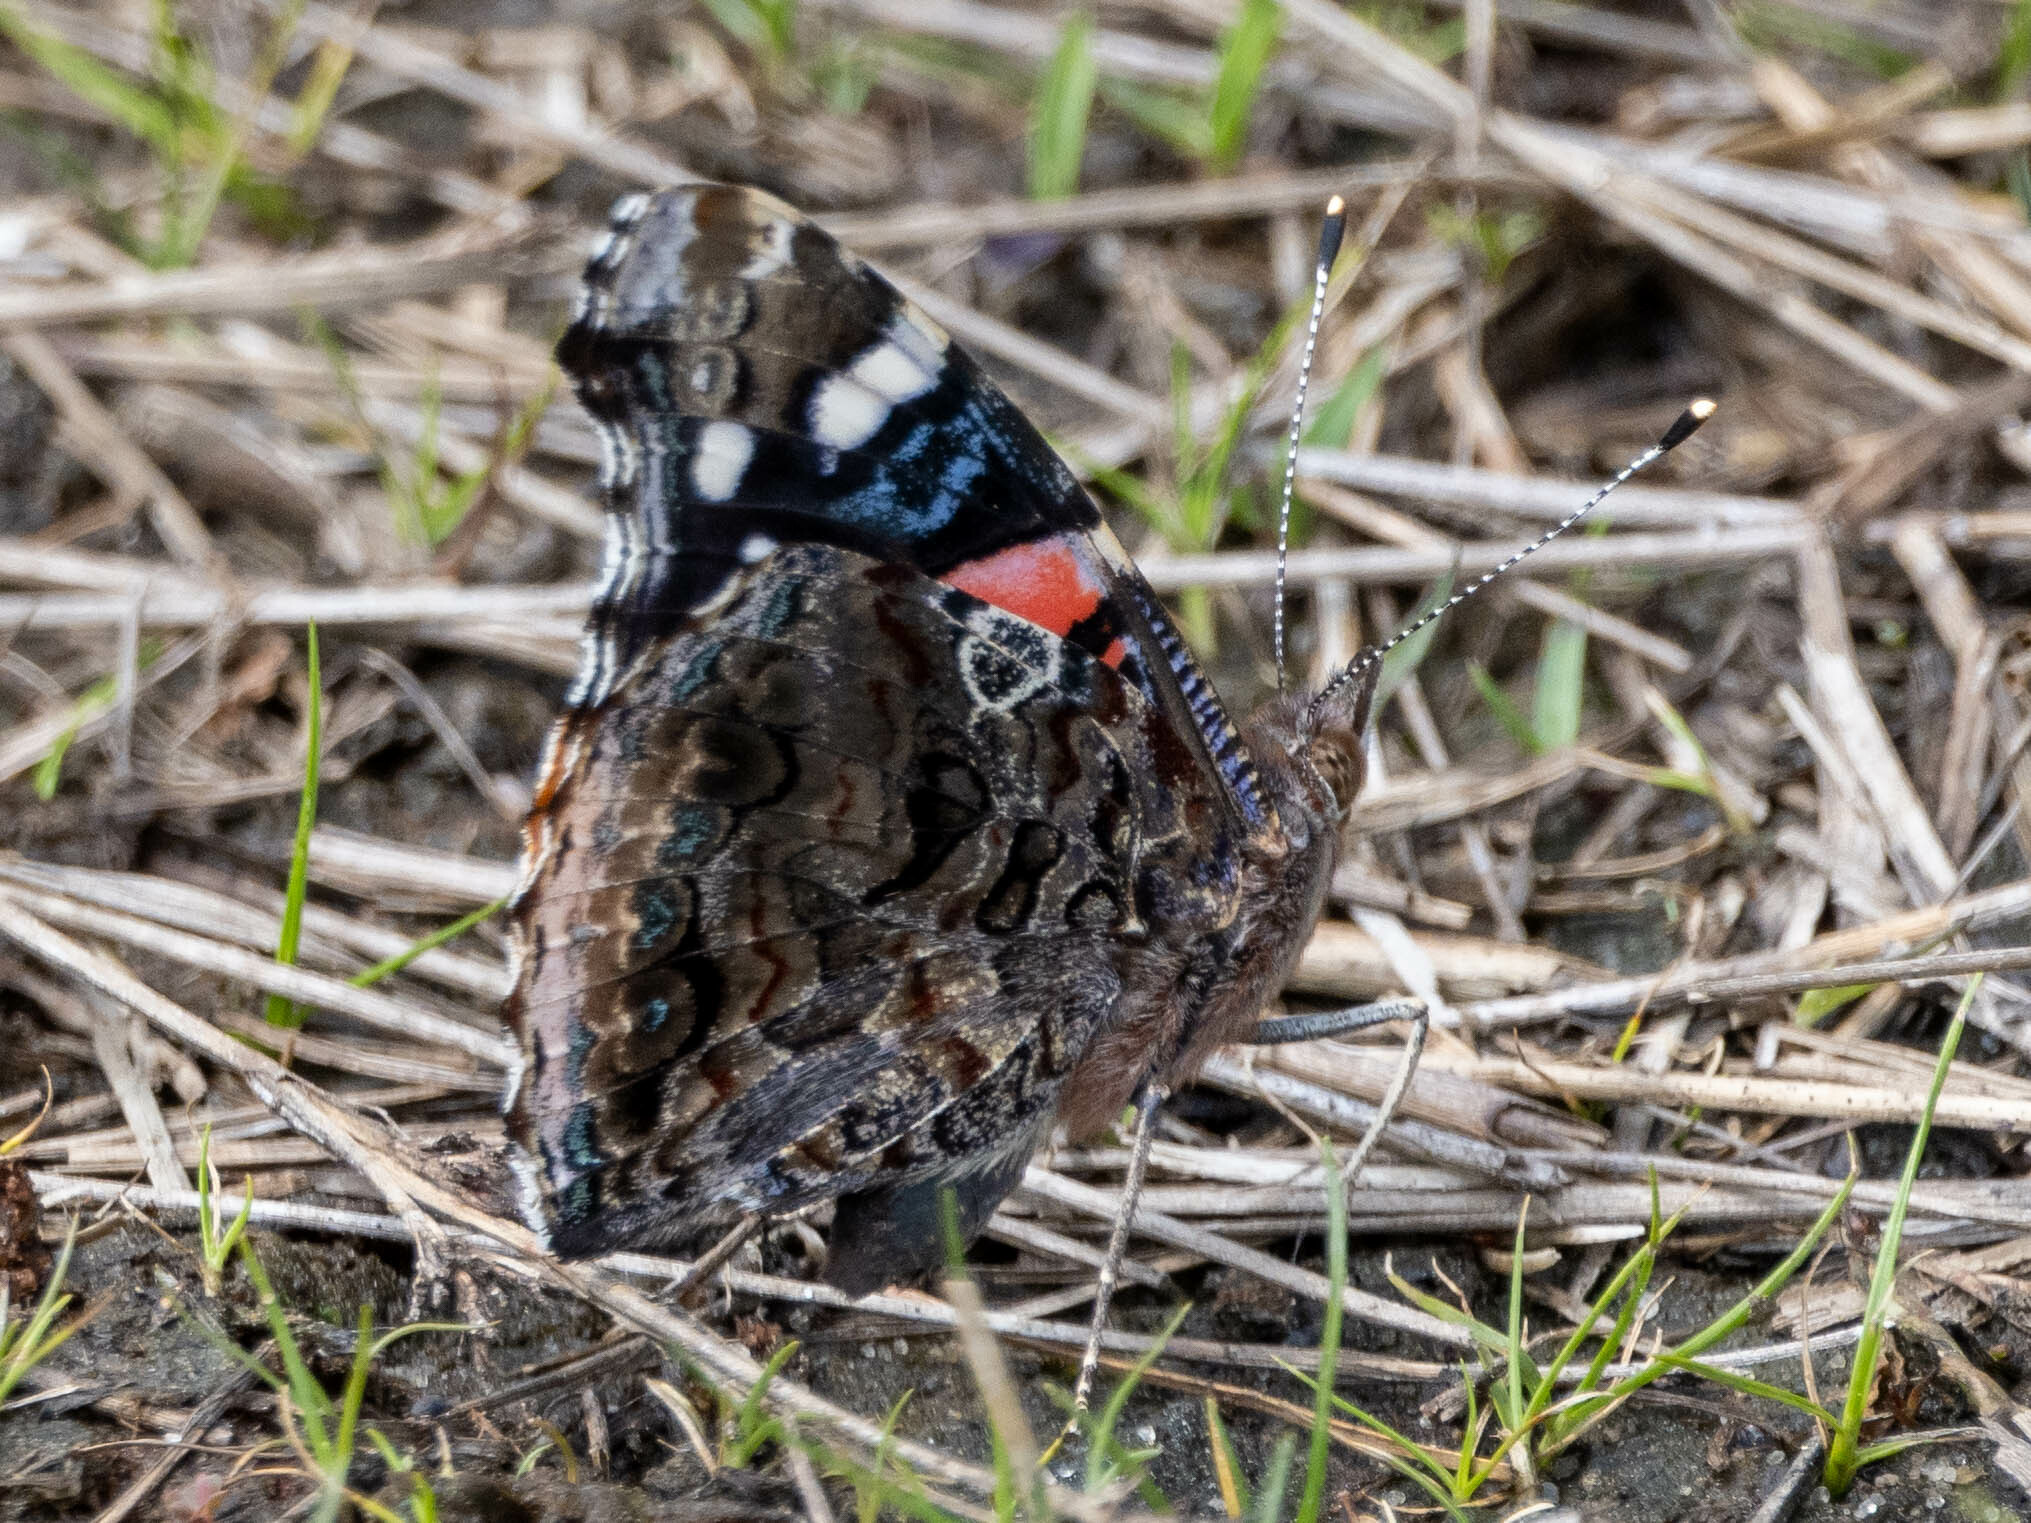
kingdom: Animalia
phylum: Arthropoda
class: Insecta
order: Lepidoptera
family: Nymphalidae
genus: Vanessa
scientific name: Vanessa atalanta
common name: Red admiral
